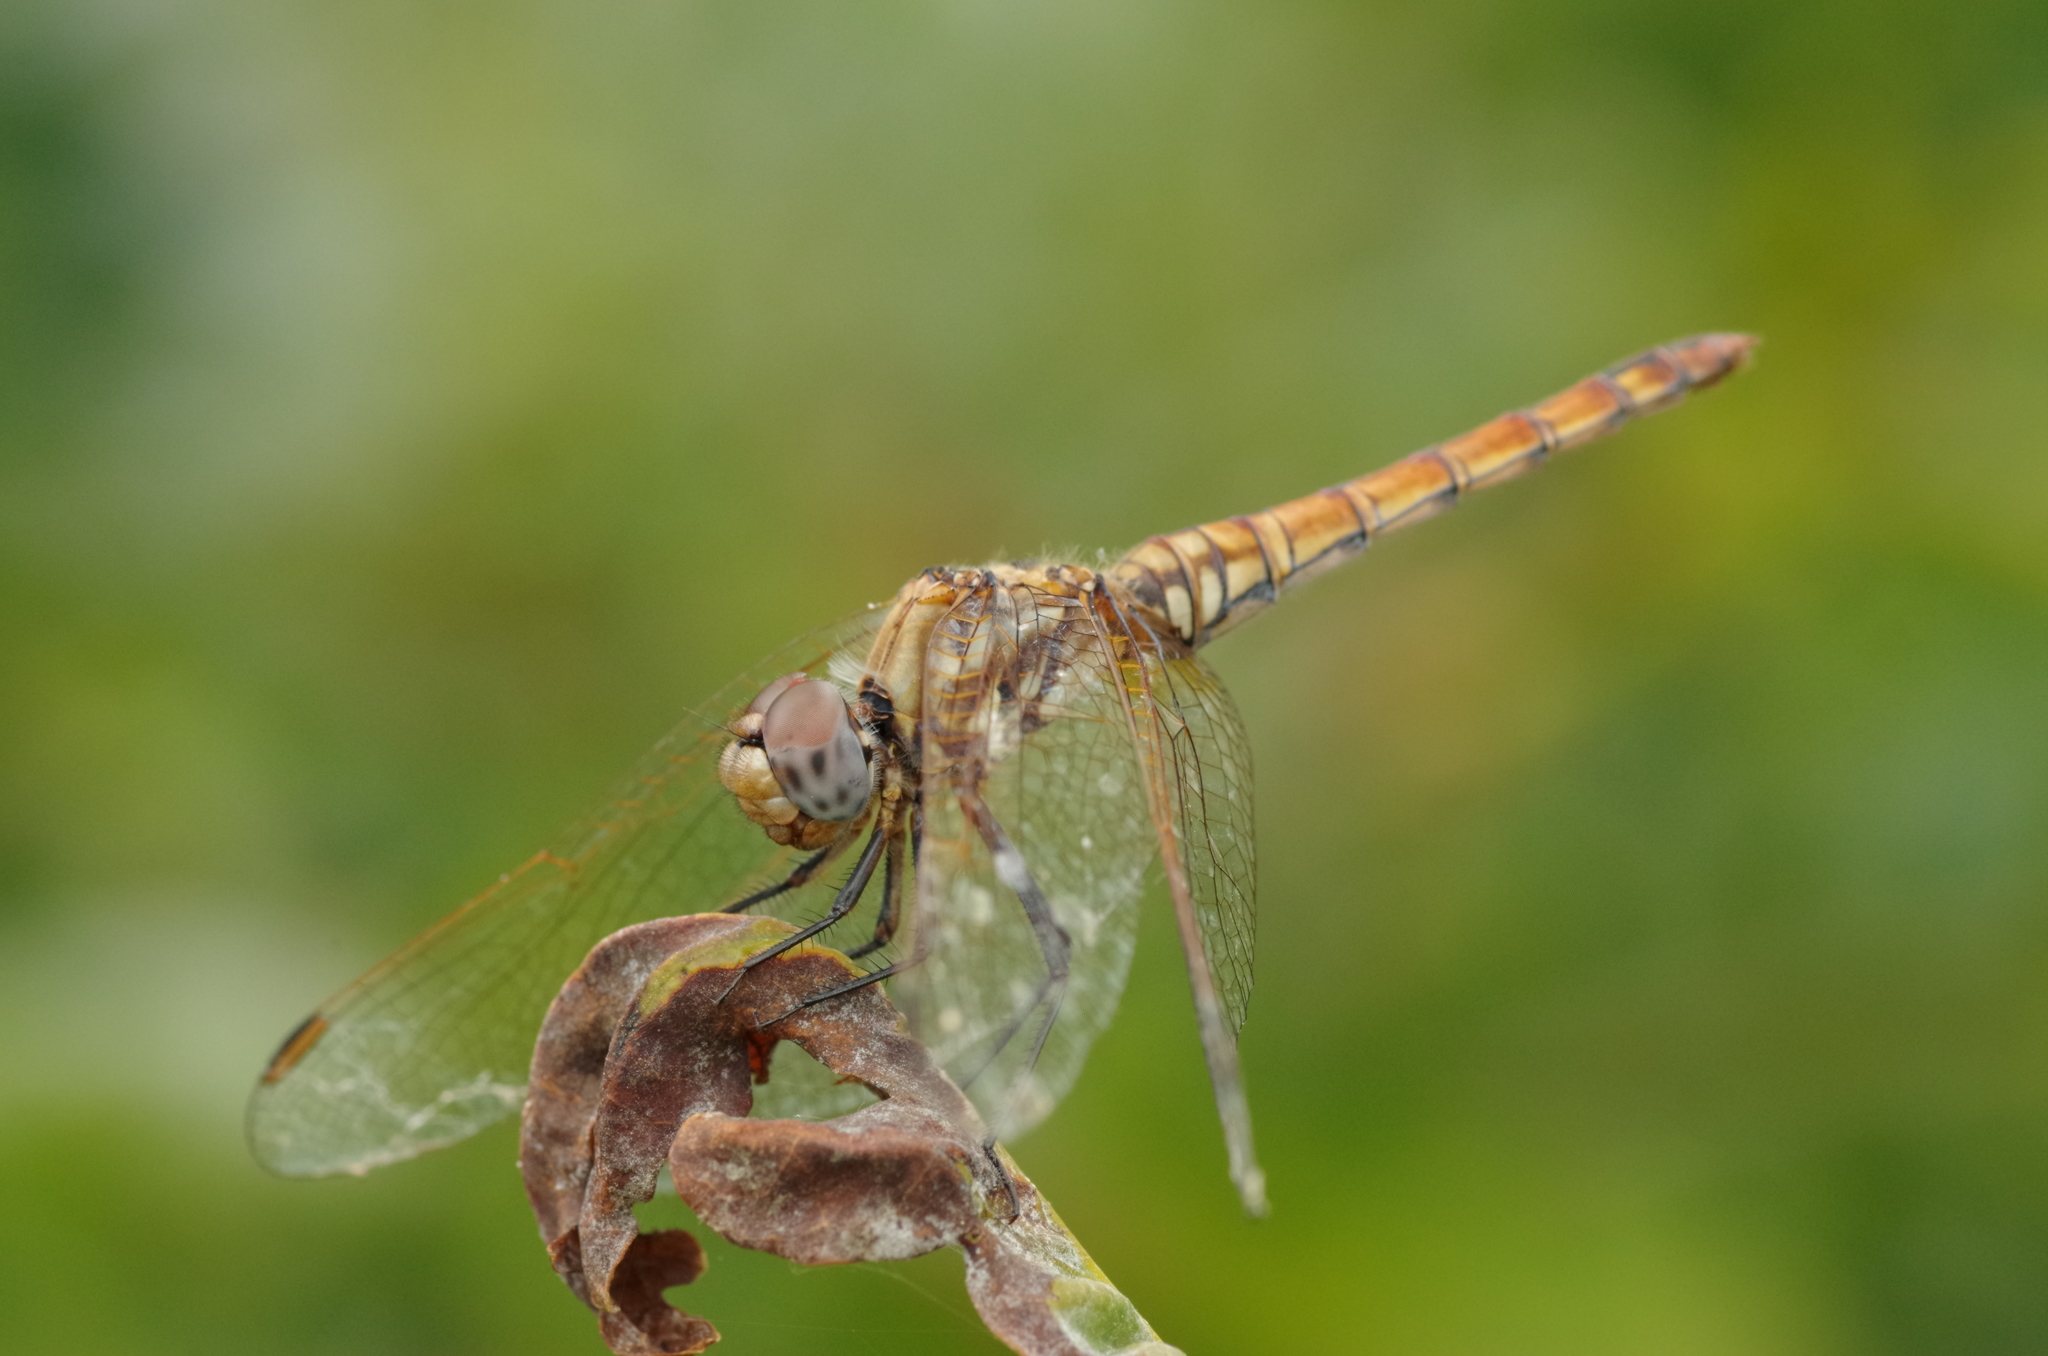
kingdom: Animalia
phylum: Arthropoda
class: Insecta
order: Odonata
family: Libellulidae
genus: Trithemis
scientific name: Trithemis annulata
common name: Violet dropwing
